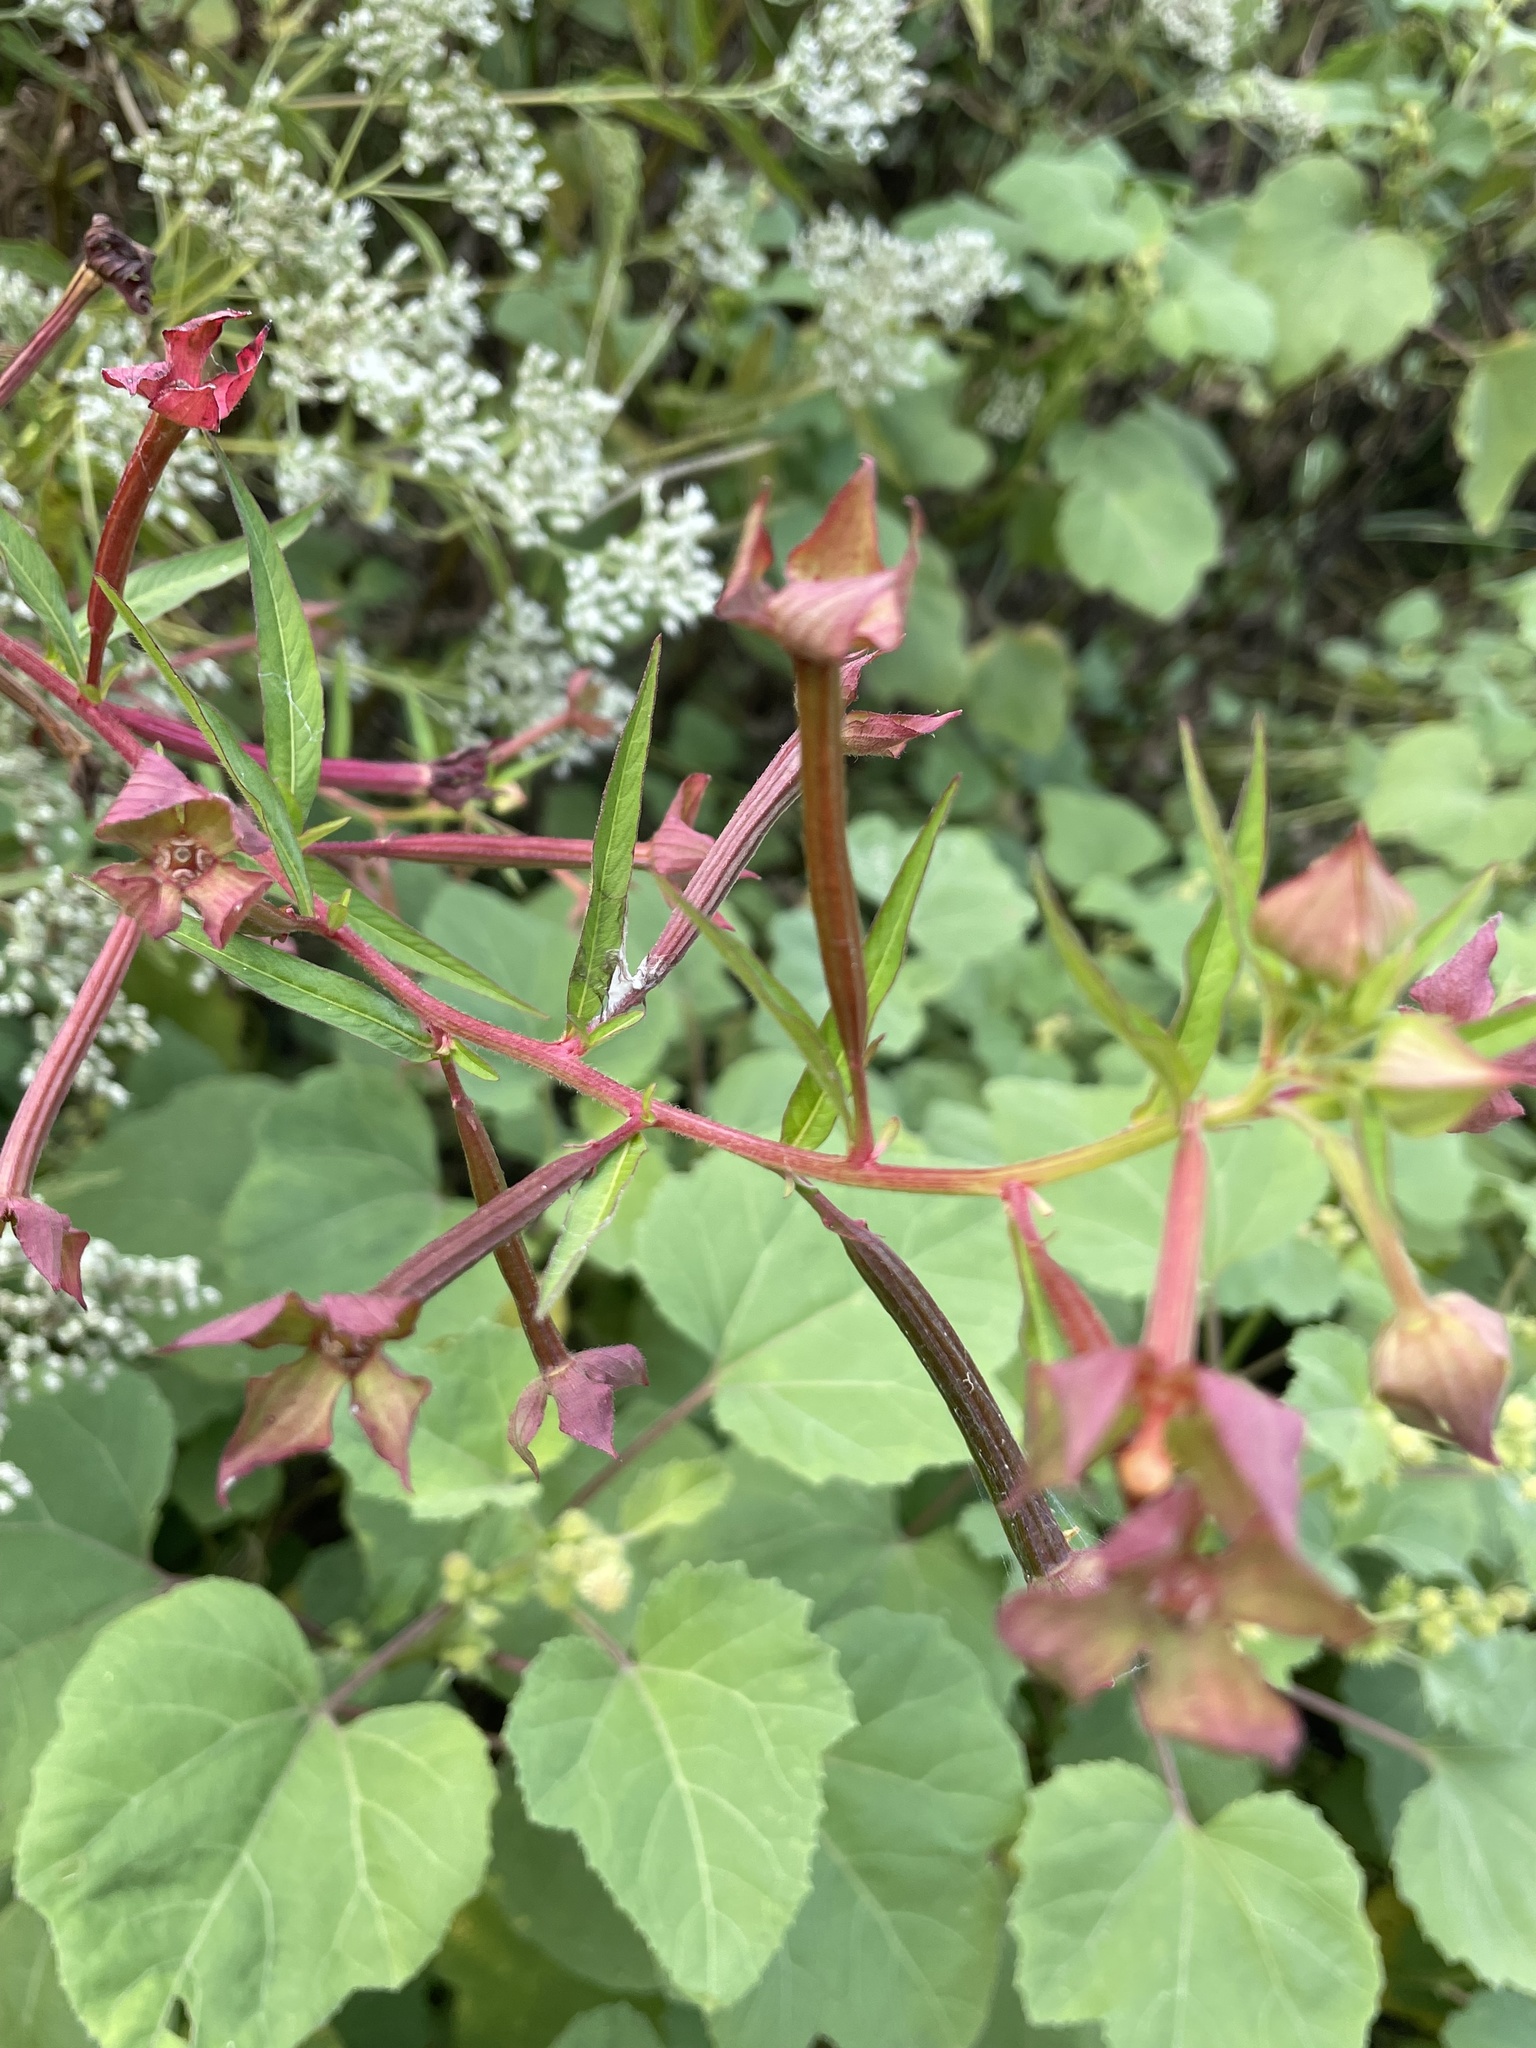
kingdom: Plantae
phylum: Tracheophyta
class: Magnoliopsida
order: Myrtales
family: Onagraceae
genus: Ludwigia
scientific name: Ludwigia octovalvis
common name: Water-primrose
